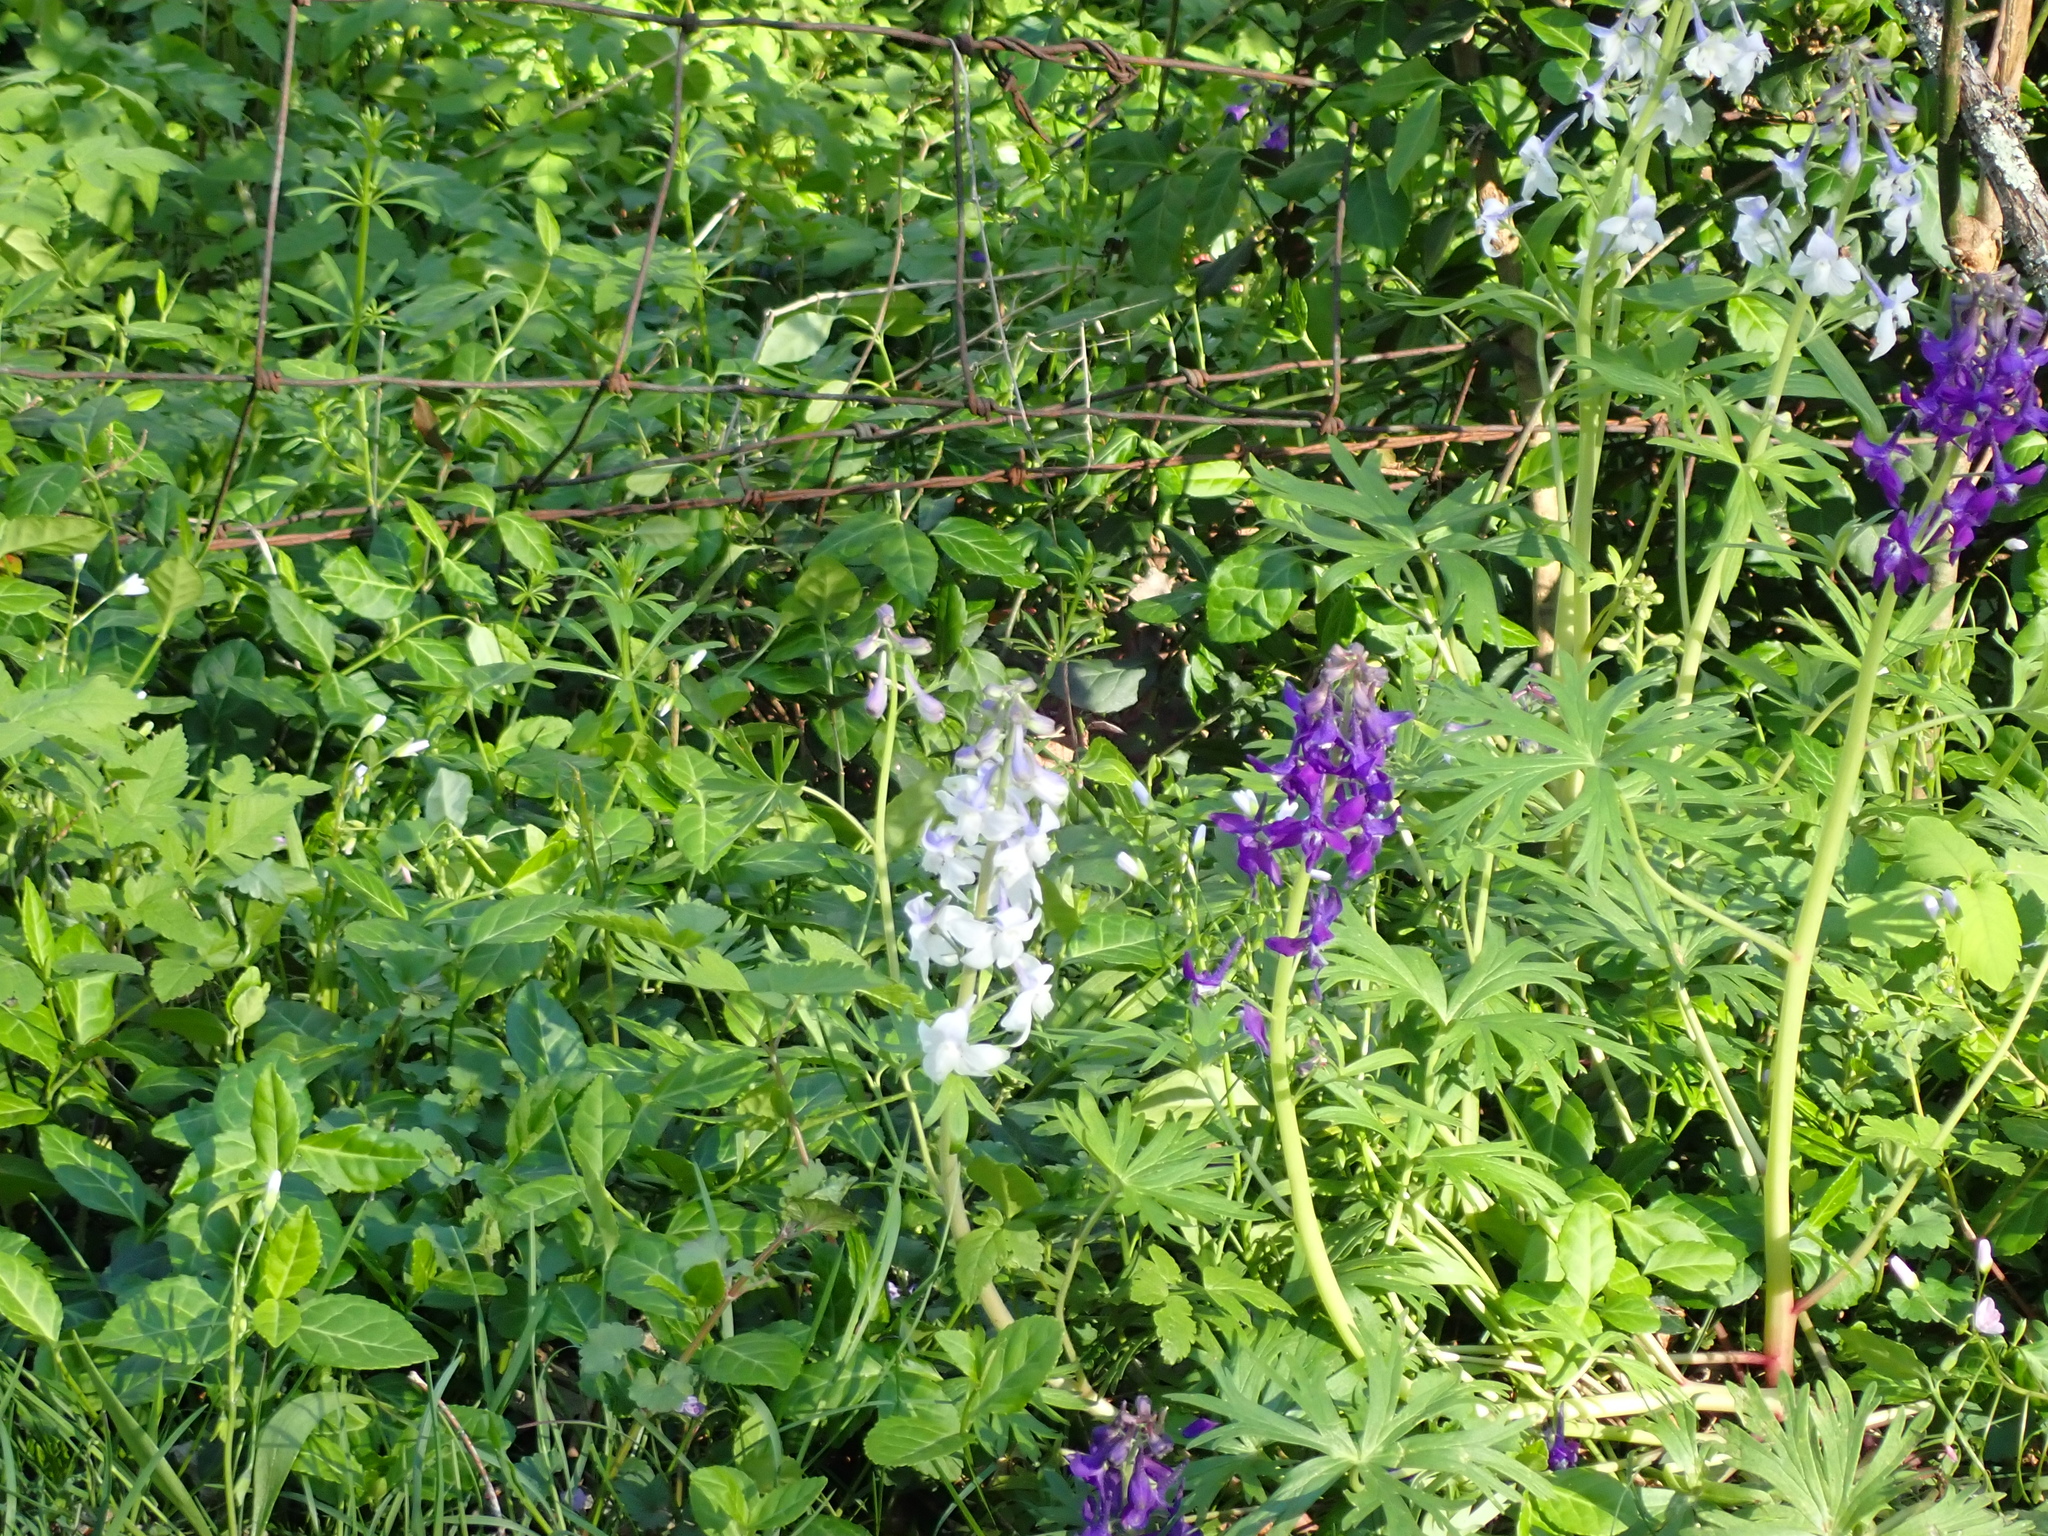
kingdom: Plantae
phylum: Tracheophyta
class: Magnoliopsida
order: Ranunculales
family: Ranunculaceae
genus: Delphinium
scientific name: Delphinium tricorne
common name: Dwarf larkspur
